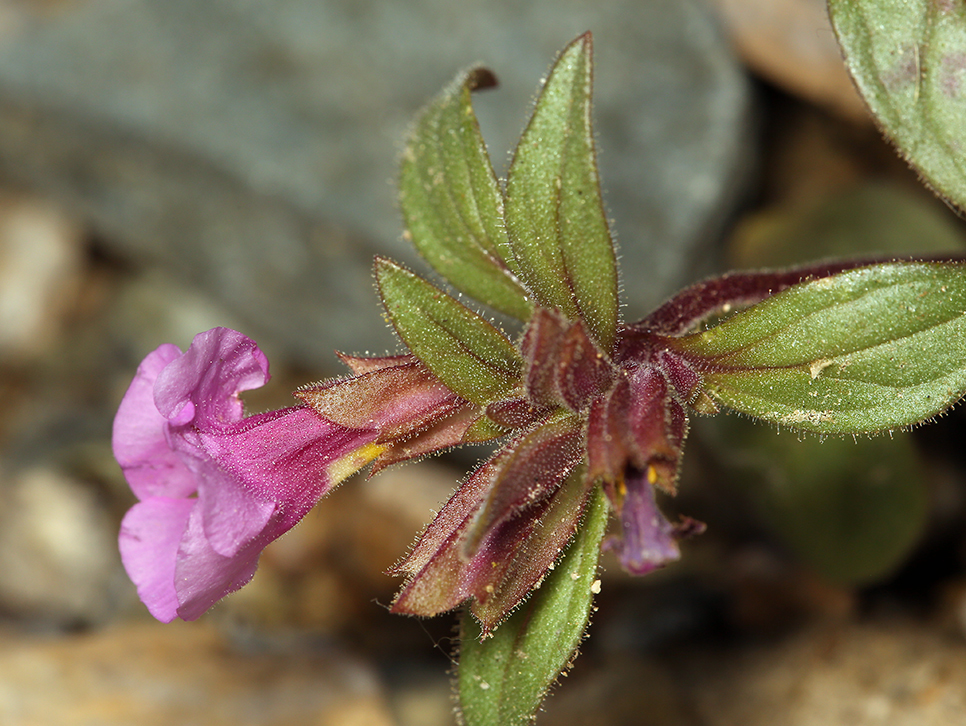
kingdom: Plantae
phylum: Tracheophyta
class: Magnoliopsida
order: Lamiales
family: Phrymaceae
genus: Diplacus
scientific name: Diplacus parryi
